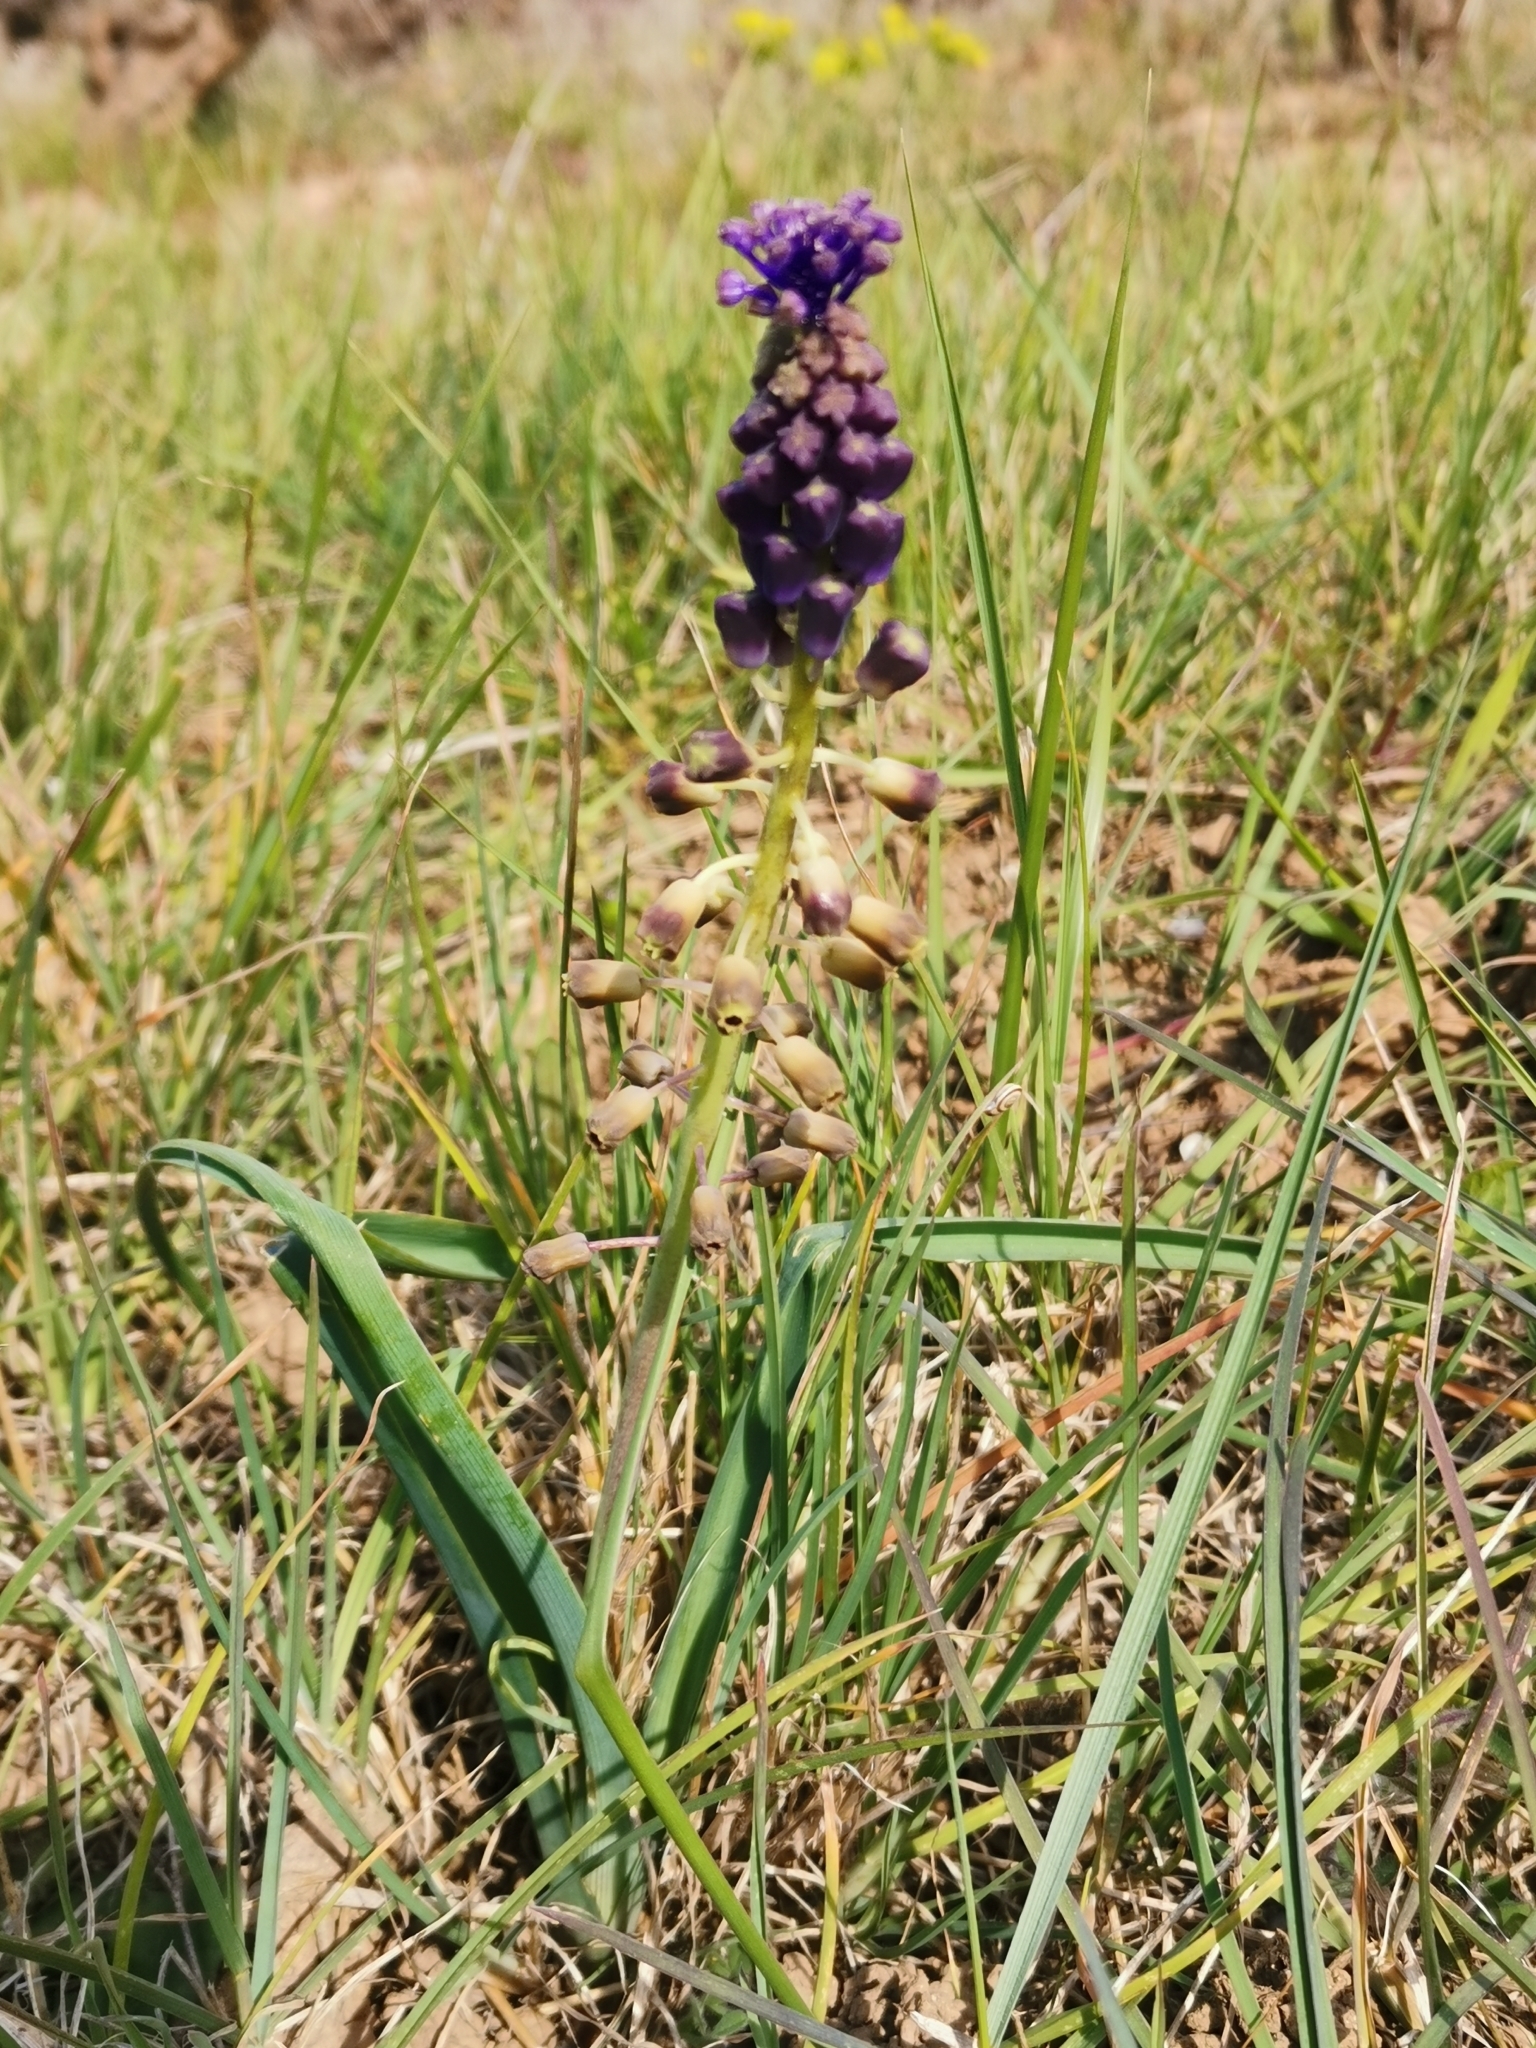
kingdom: Plantae
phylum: Tracheophyta
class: Liliopsida
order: Asparagales
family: Asparagaceae
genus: Muscari
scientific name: Muscari comosum
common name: Tassel hyacinth
